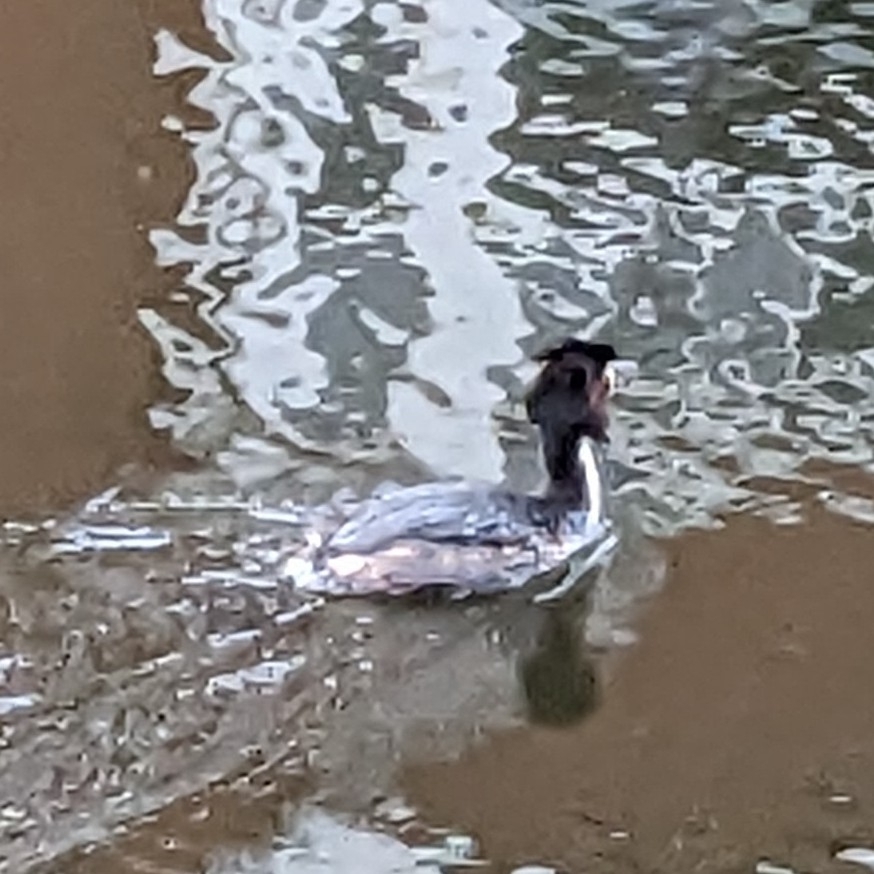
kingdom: Animalia
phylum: Chordata
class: Aves
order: Podicipediformes
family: Podicipedidae
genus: Podiceps
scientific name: Podiceps cristatus
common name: Great crested grebe
